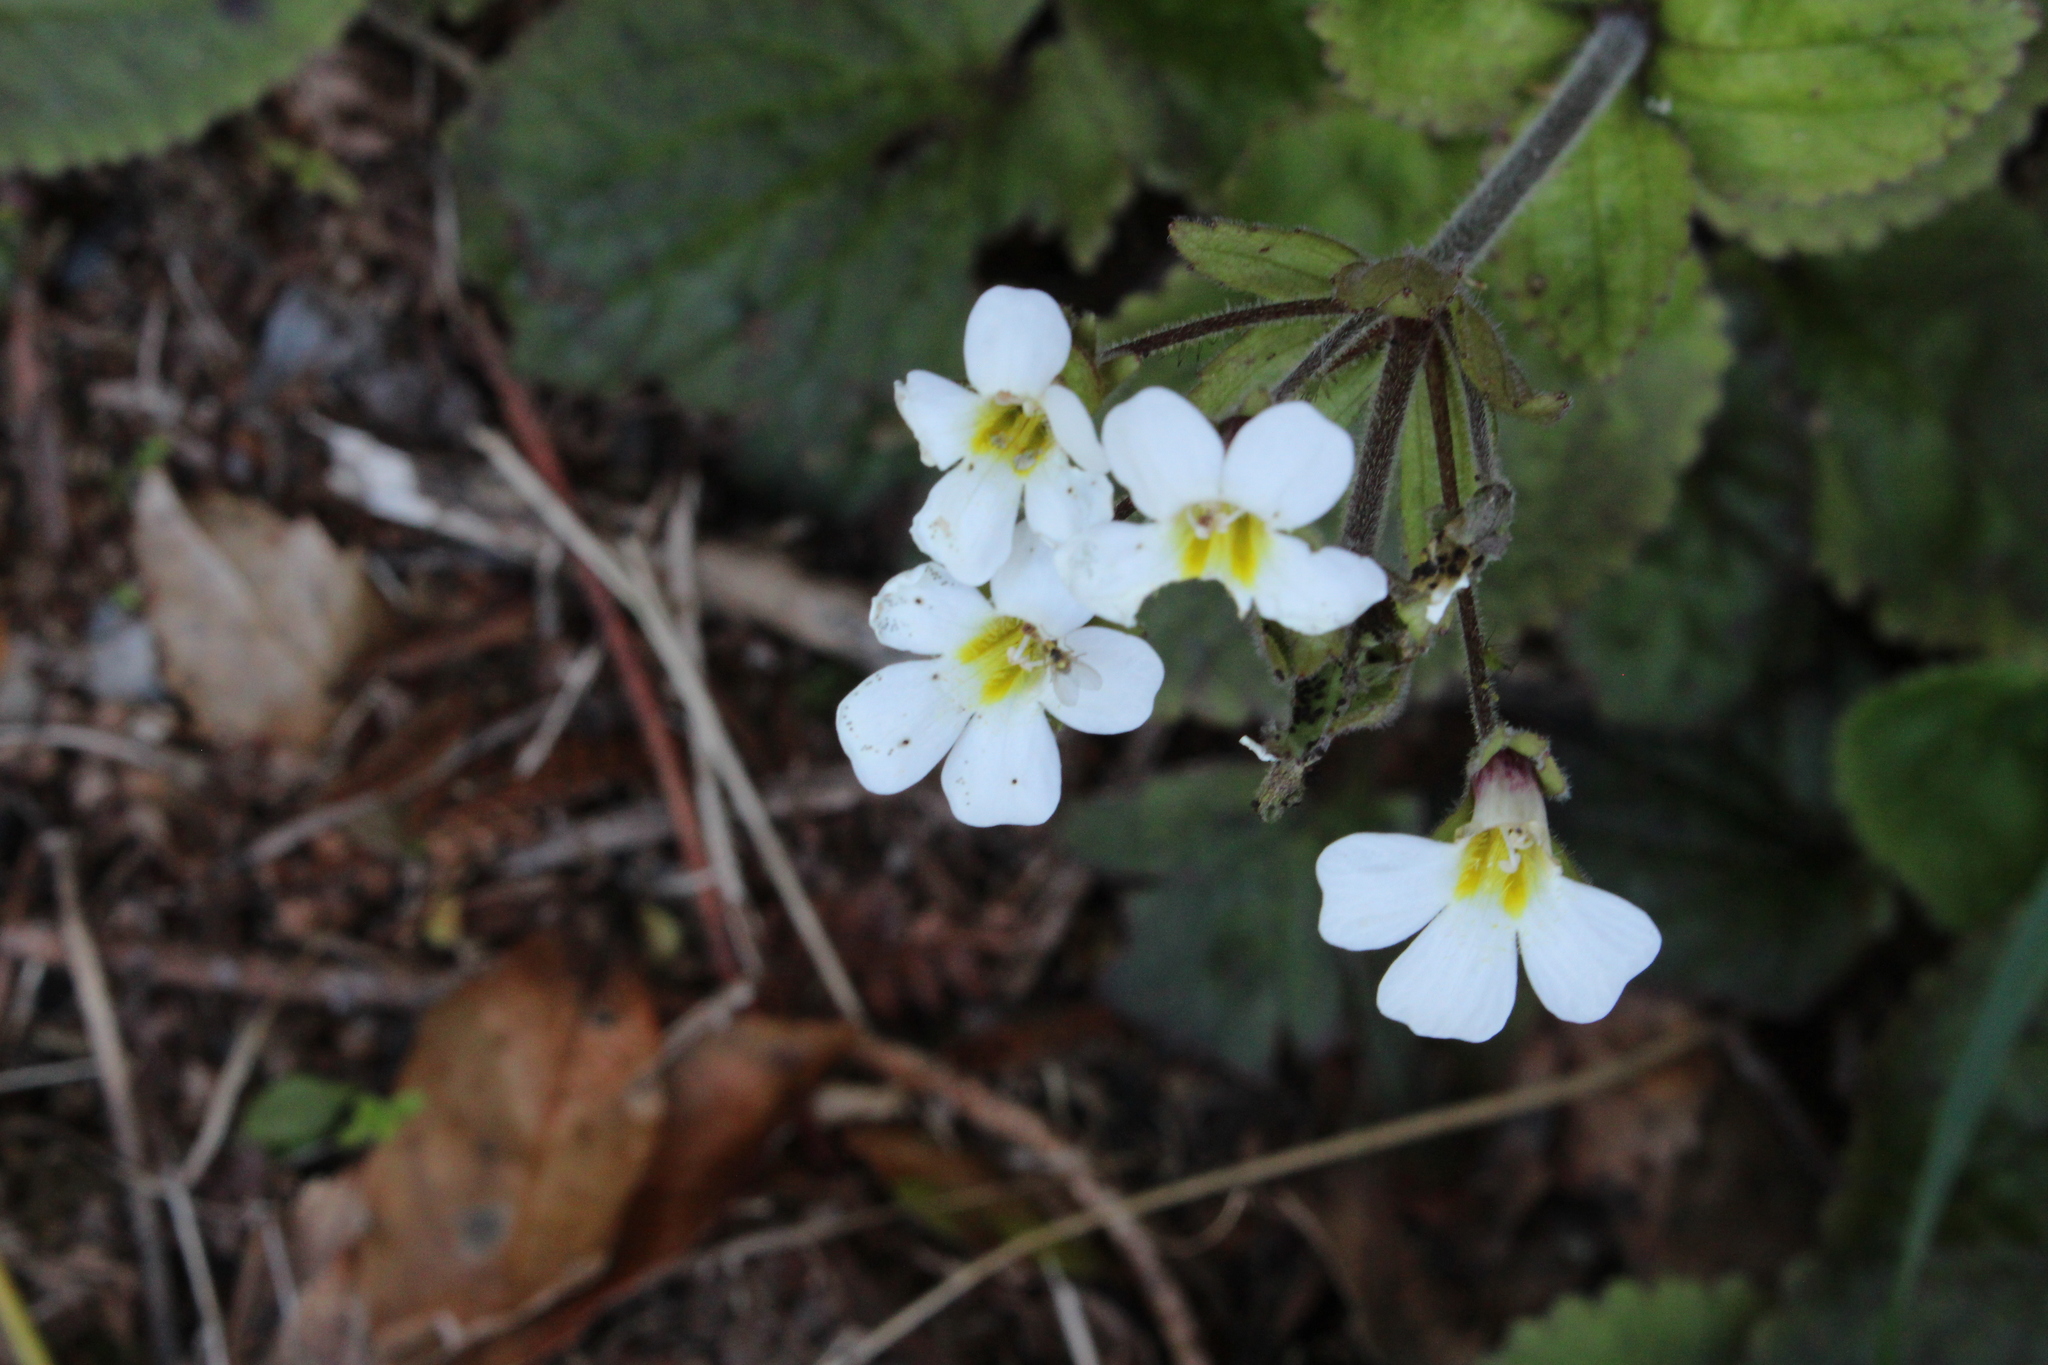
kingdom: Plantae
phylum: Tracheophyta
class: Magnoliopsida
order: Lamiales
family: Plantaginaceae
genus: Ourisia
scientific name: Ourisia macrophylla
